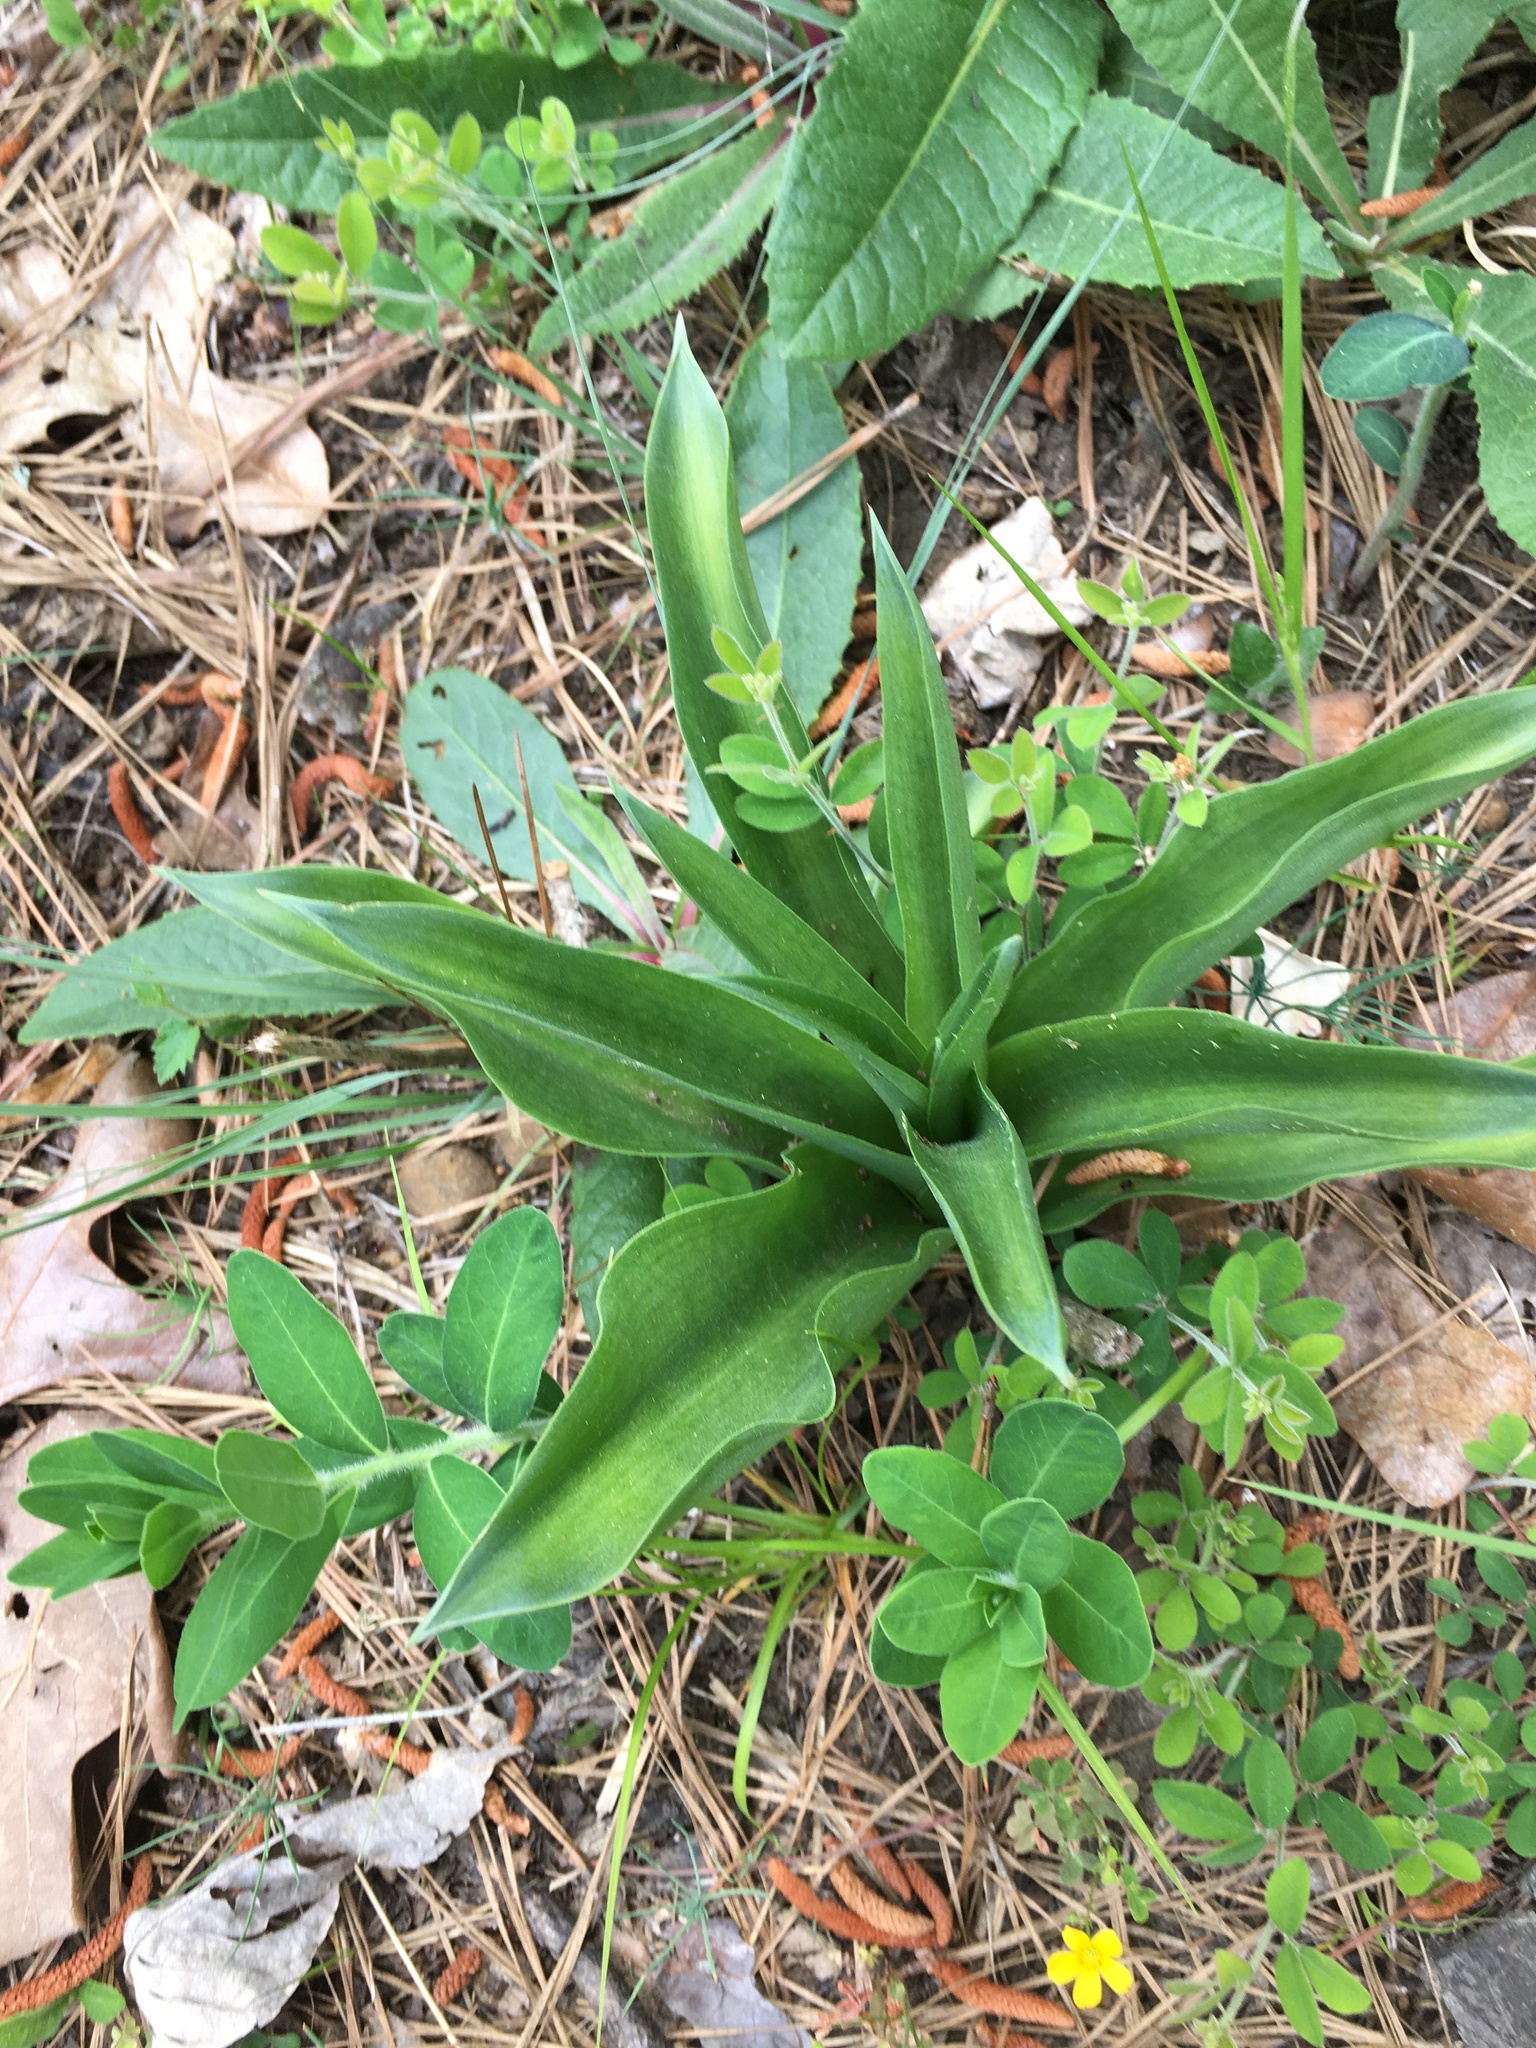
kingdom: Plantae
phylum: Tracheophyta
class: Liliopsida
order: Asparagales
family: Asparagaceae
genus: Agave
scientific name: Agave virginica
